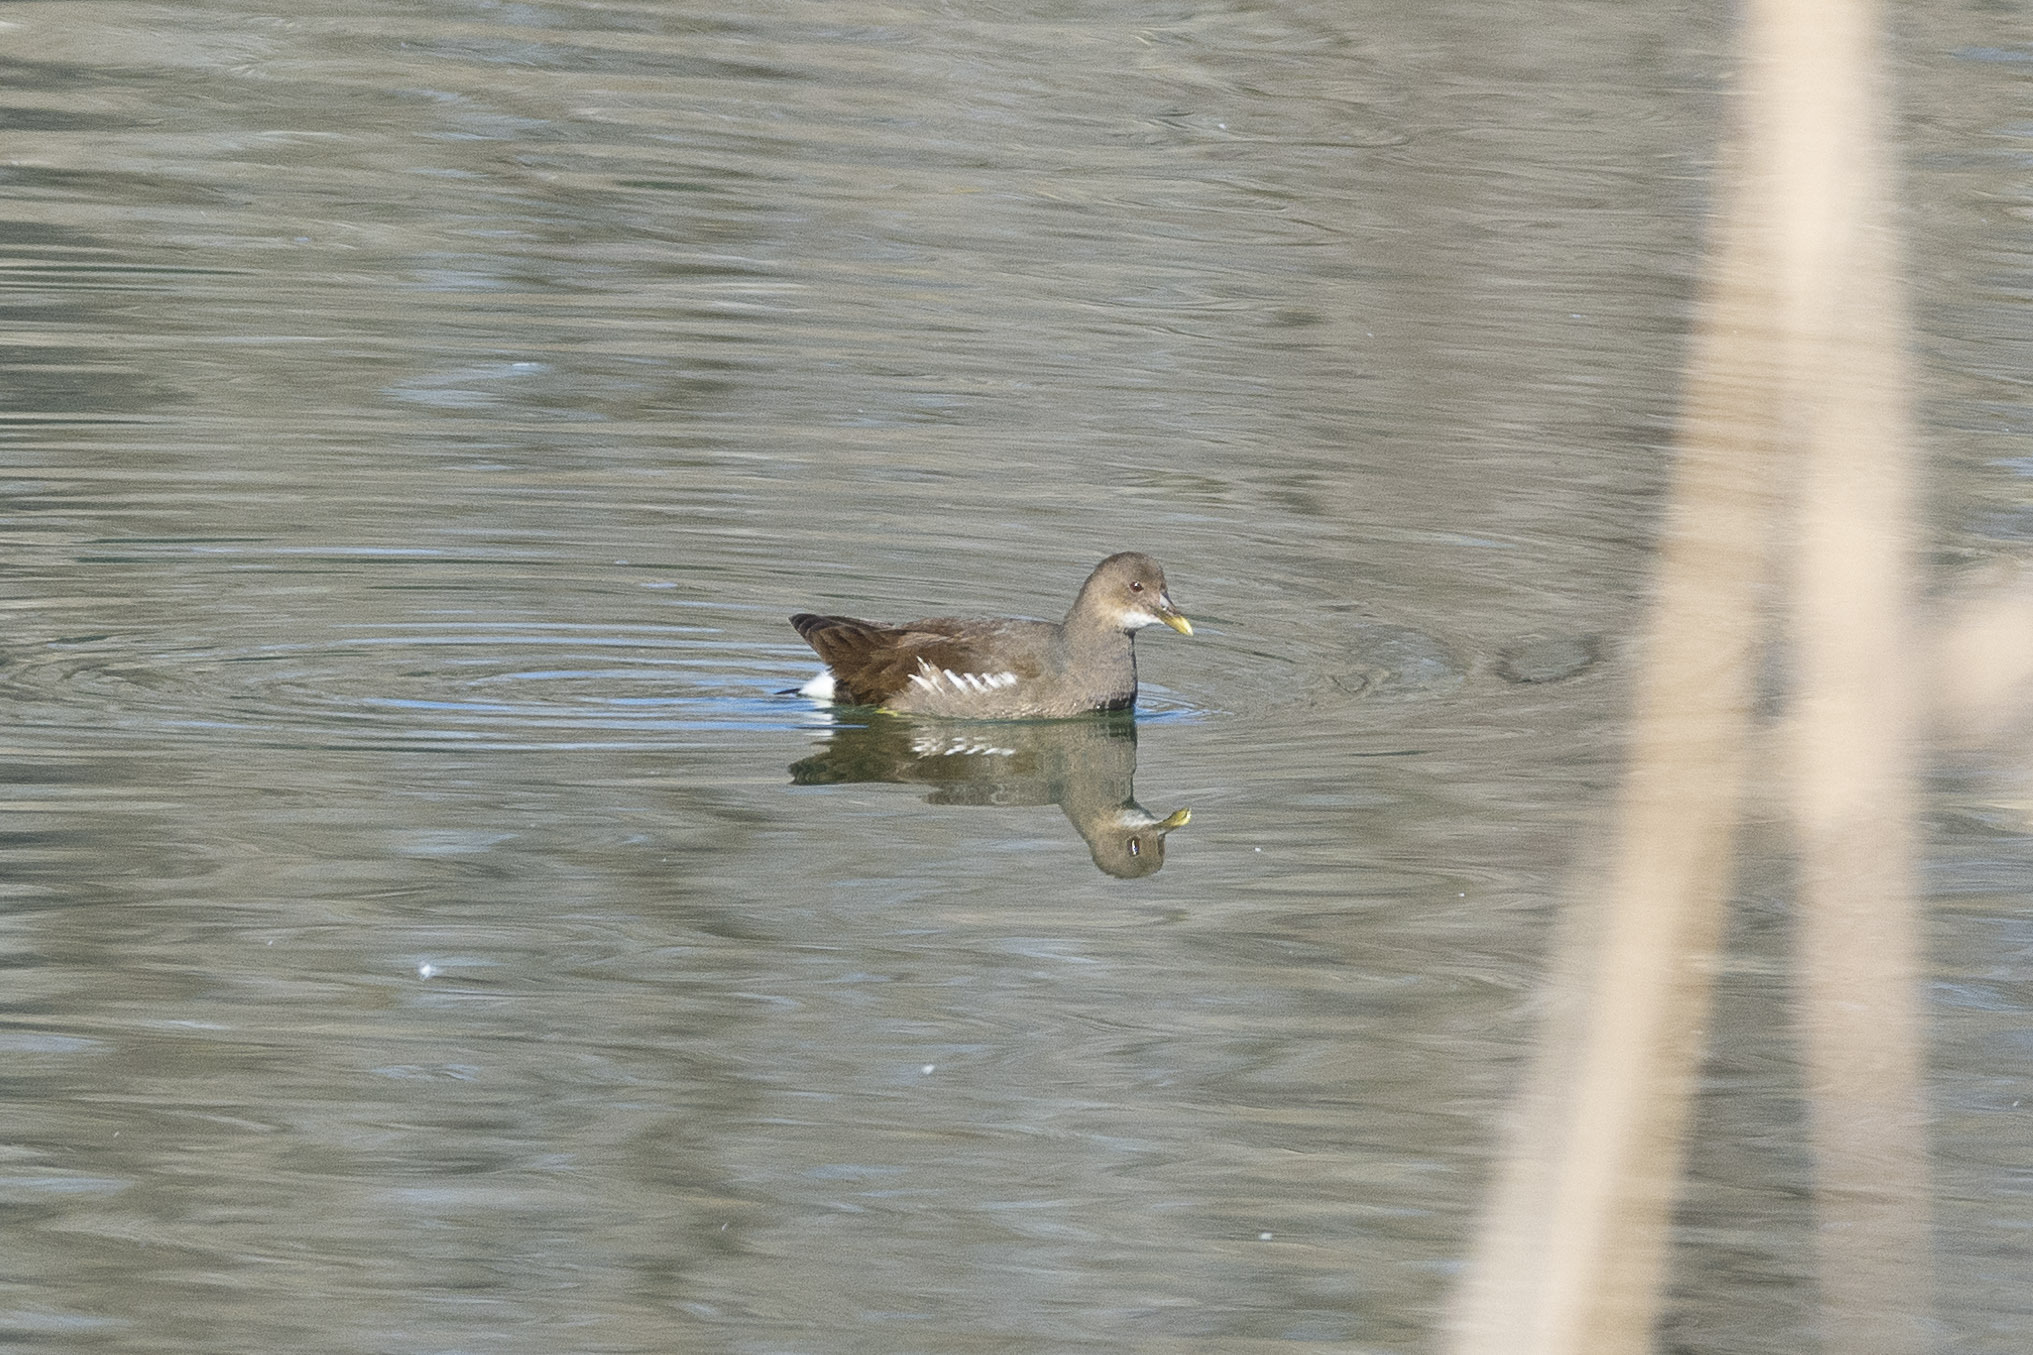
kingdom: Animalia
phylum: Chordata
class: Aves
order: Gruiformes
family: Rallidae
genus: Gallinula
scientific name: Gallinula chloropus
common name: Common moorhen
